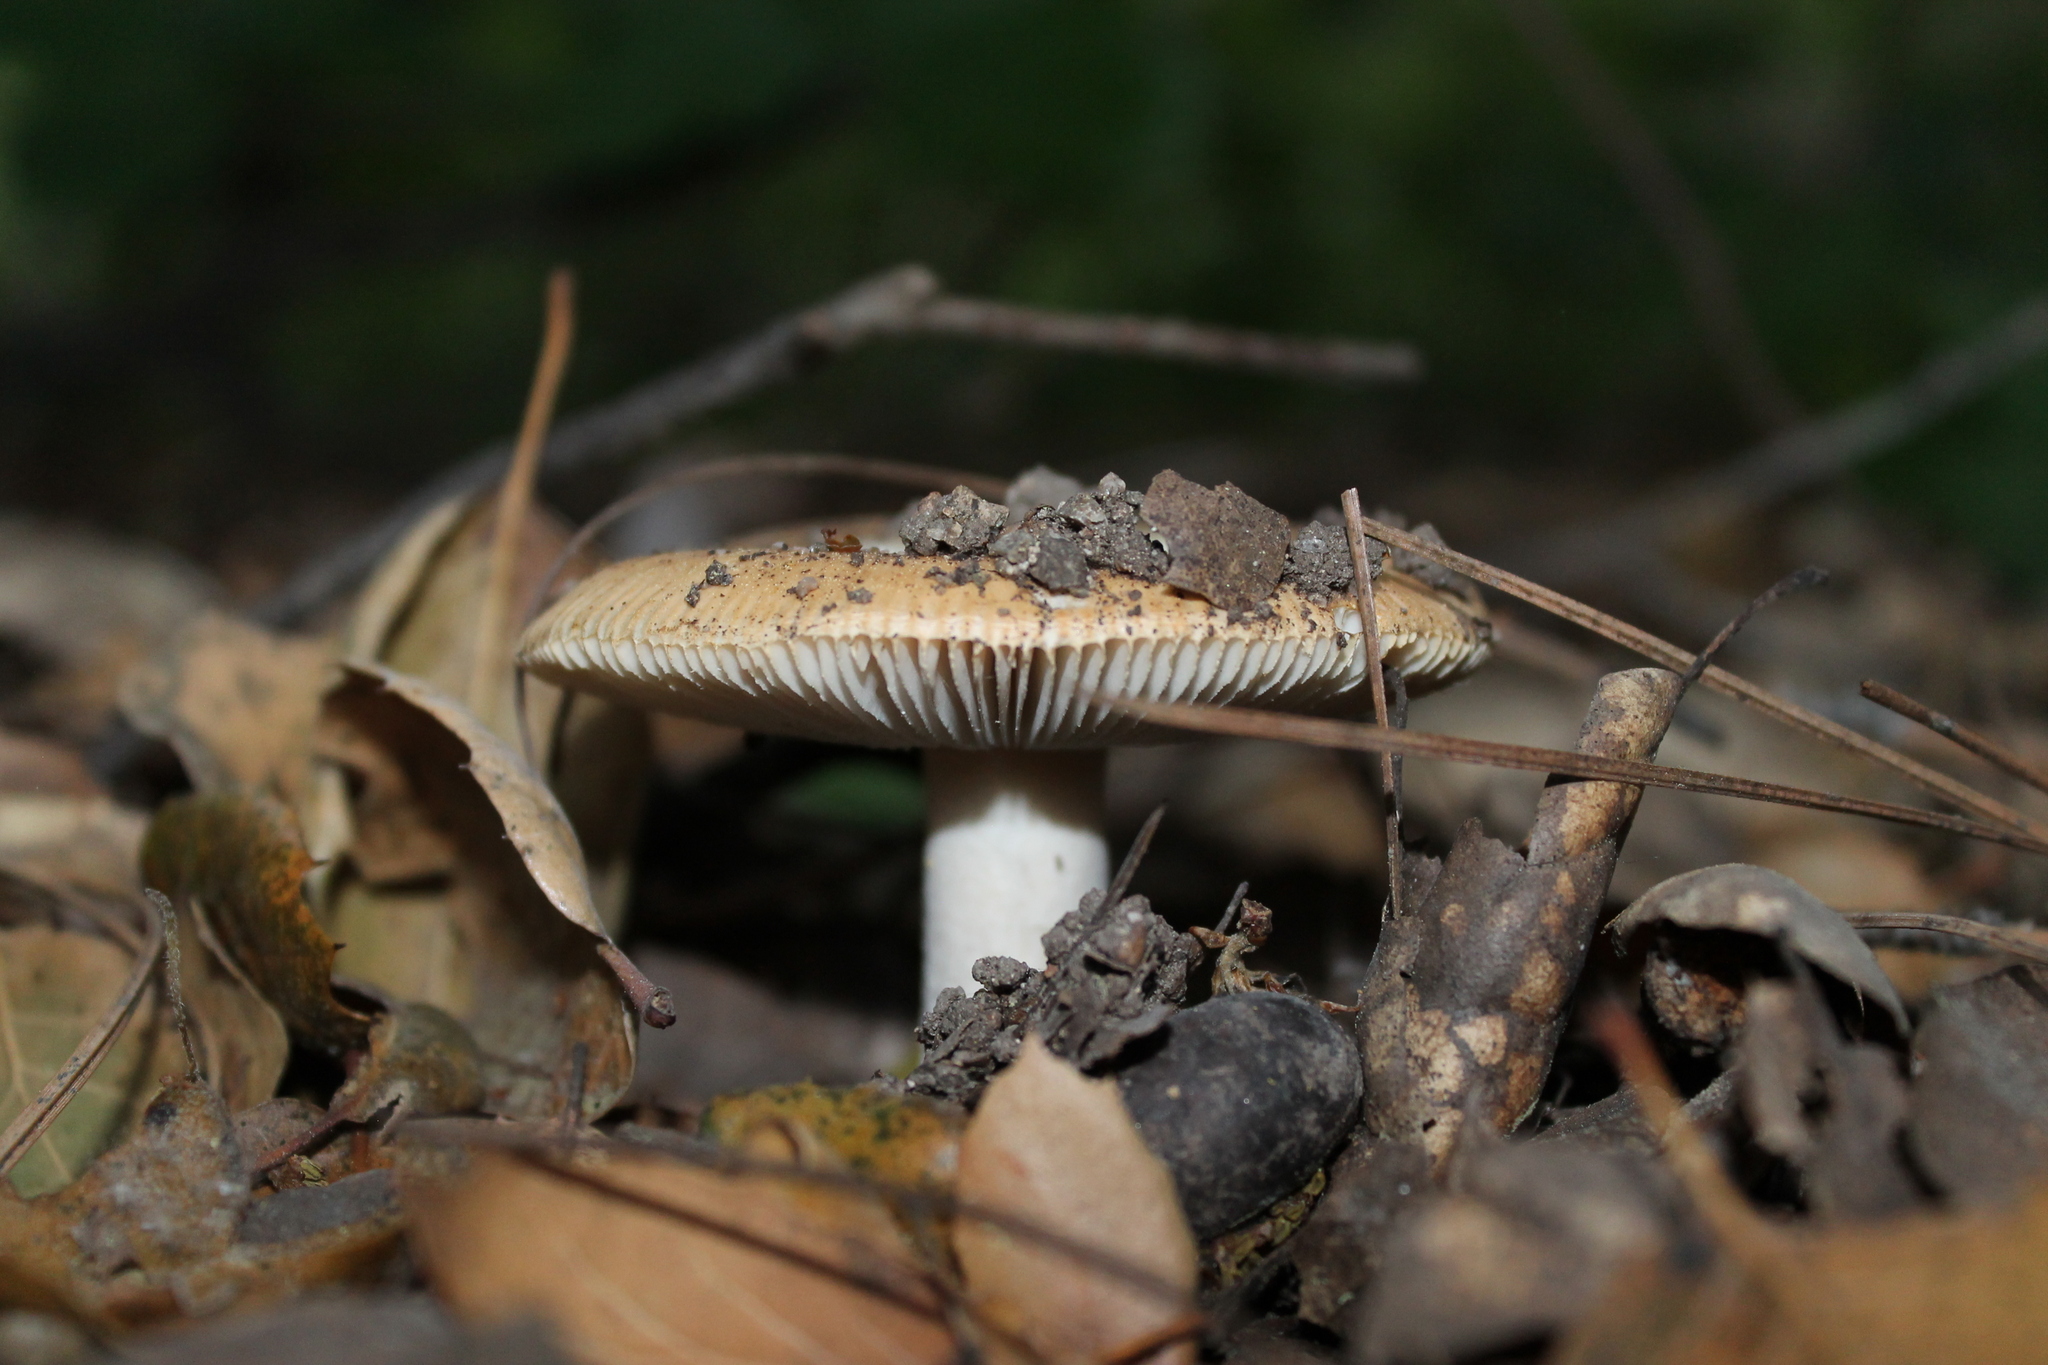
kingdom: Fungi
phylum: Basidiomycota
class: Agaricomycetes
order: Agaricales
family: Amanitaceae
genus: Amanita
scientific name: Amanita velosa
